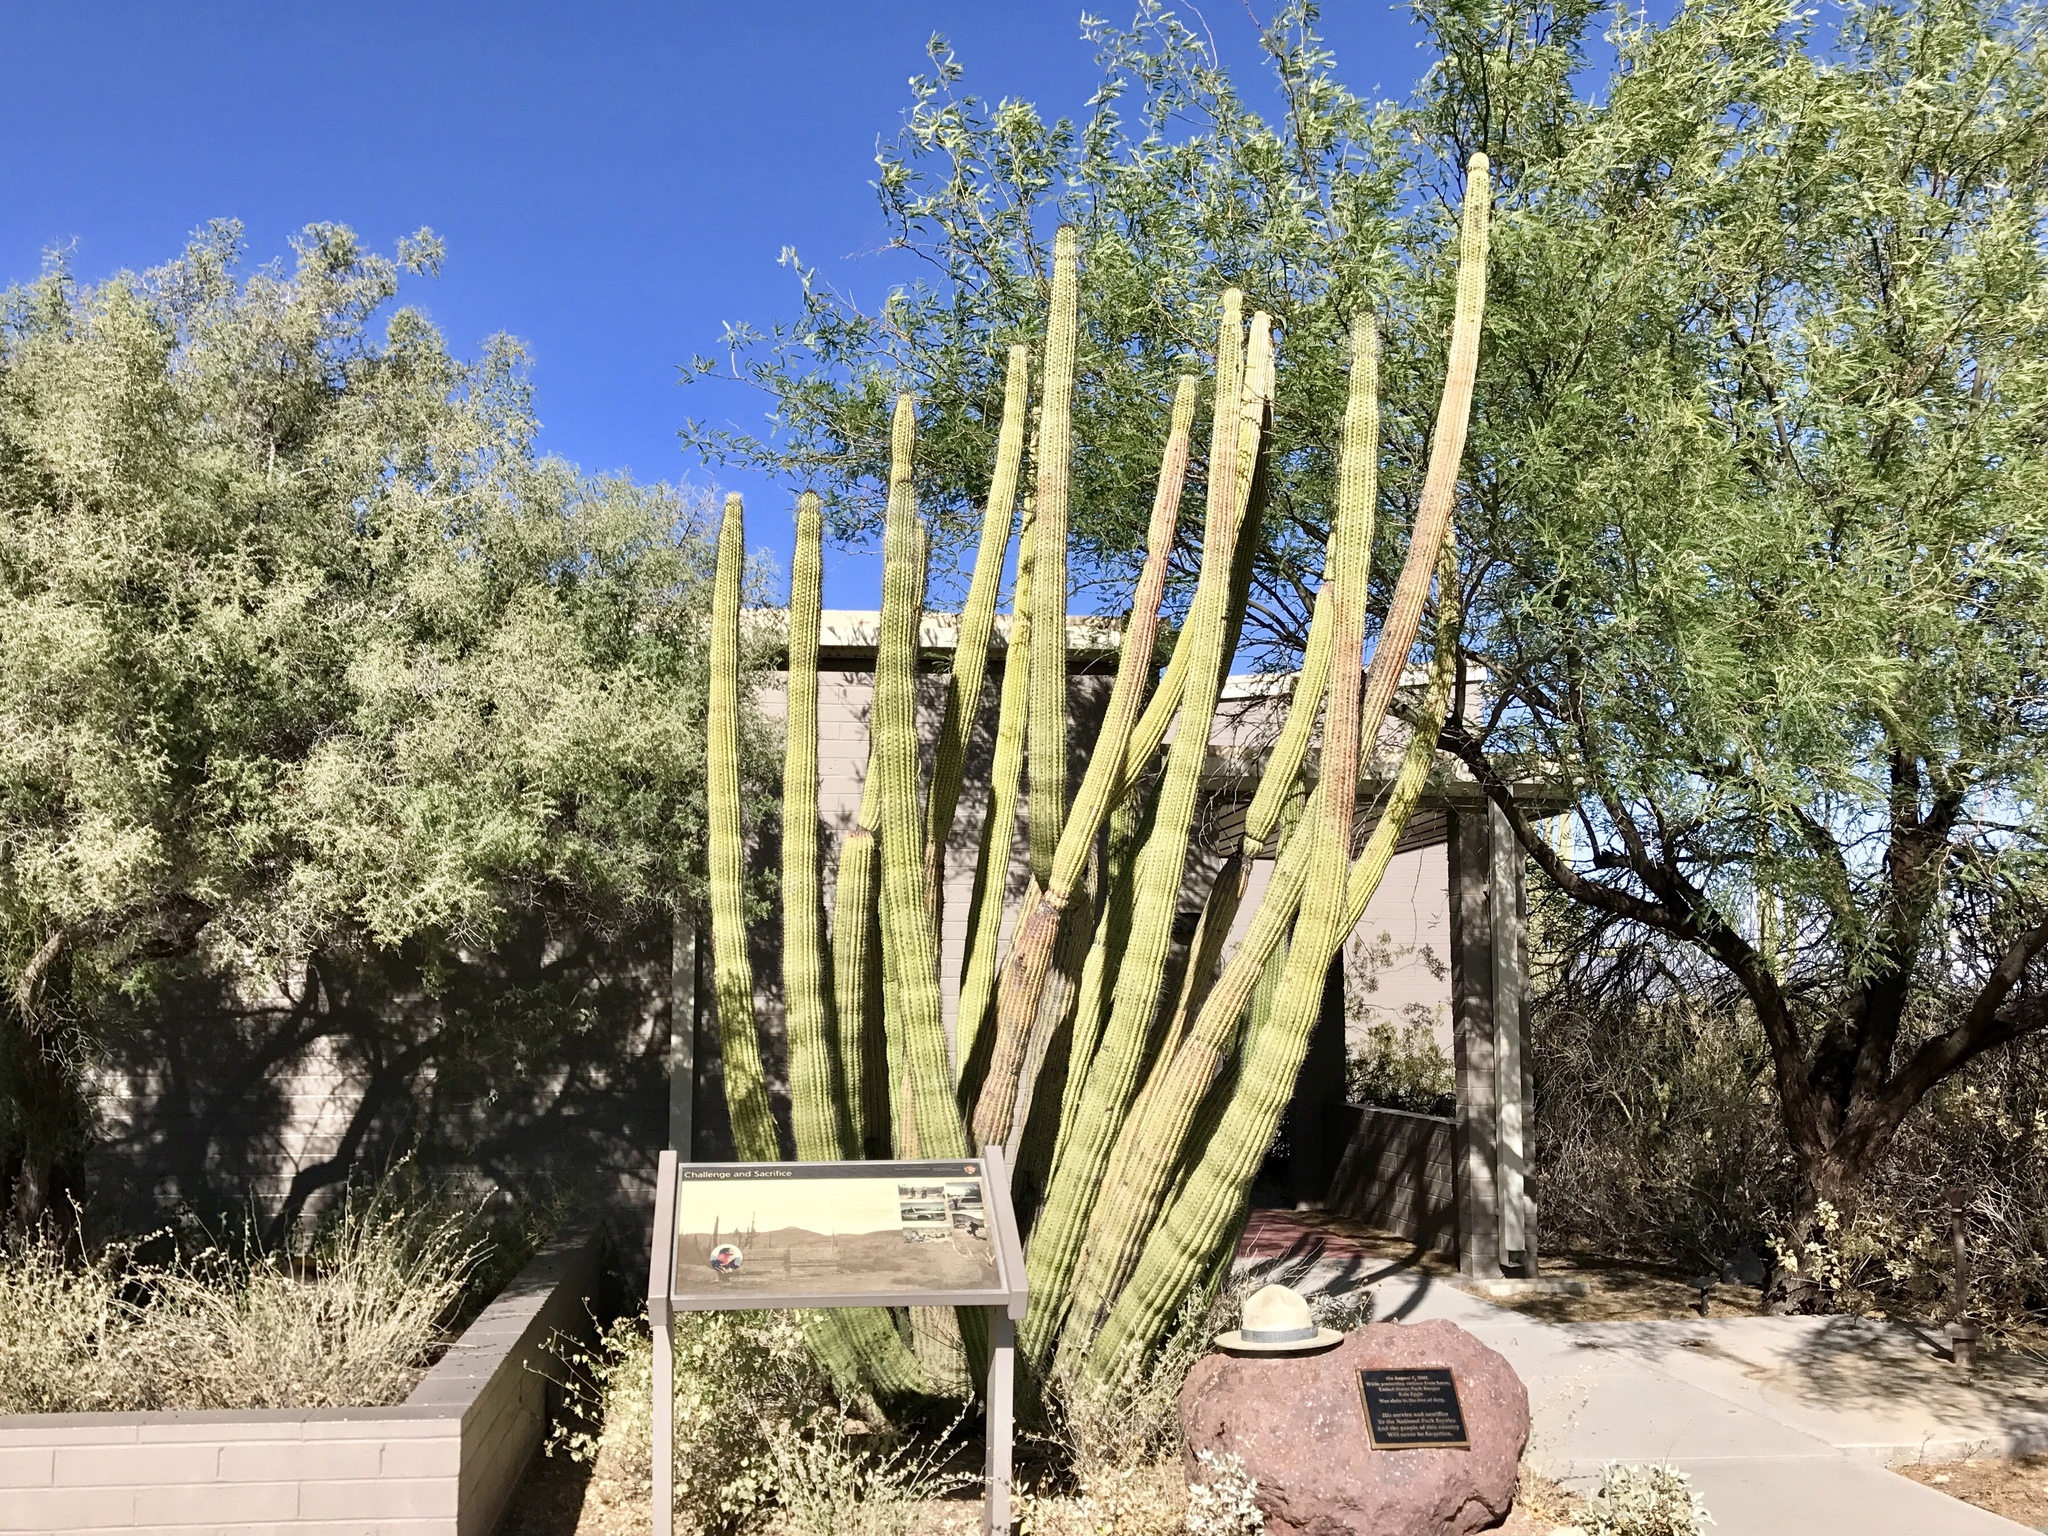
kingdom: Plantae
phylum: Tracheophyta
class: Magnoliopsida
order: Caryophyllales
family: Cactaceae
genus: Stenocereus
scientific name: Stenocereus thurberi
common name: Organ pipe cactus
